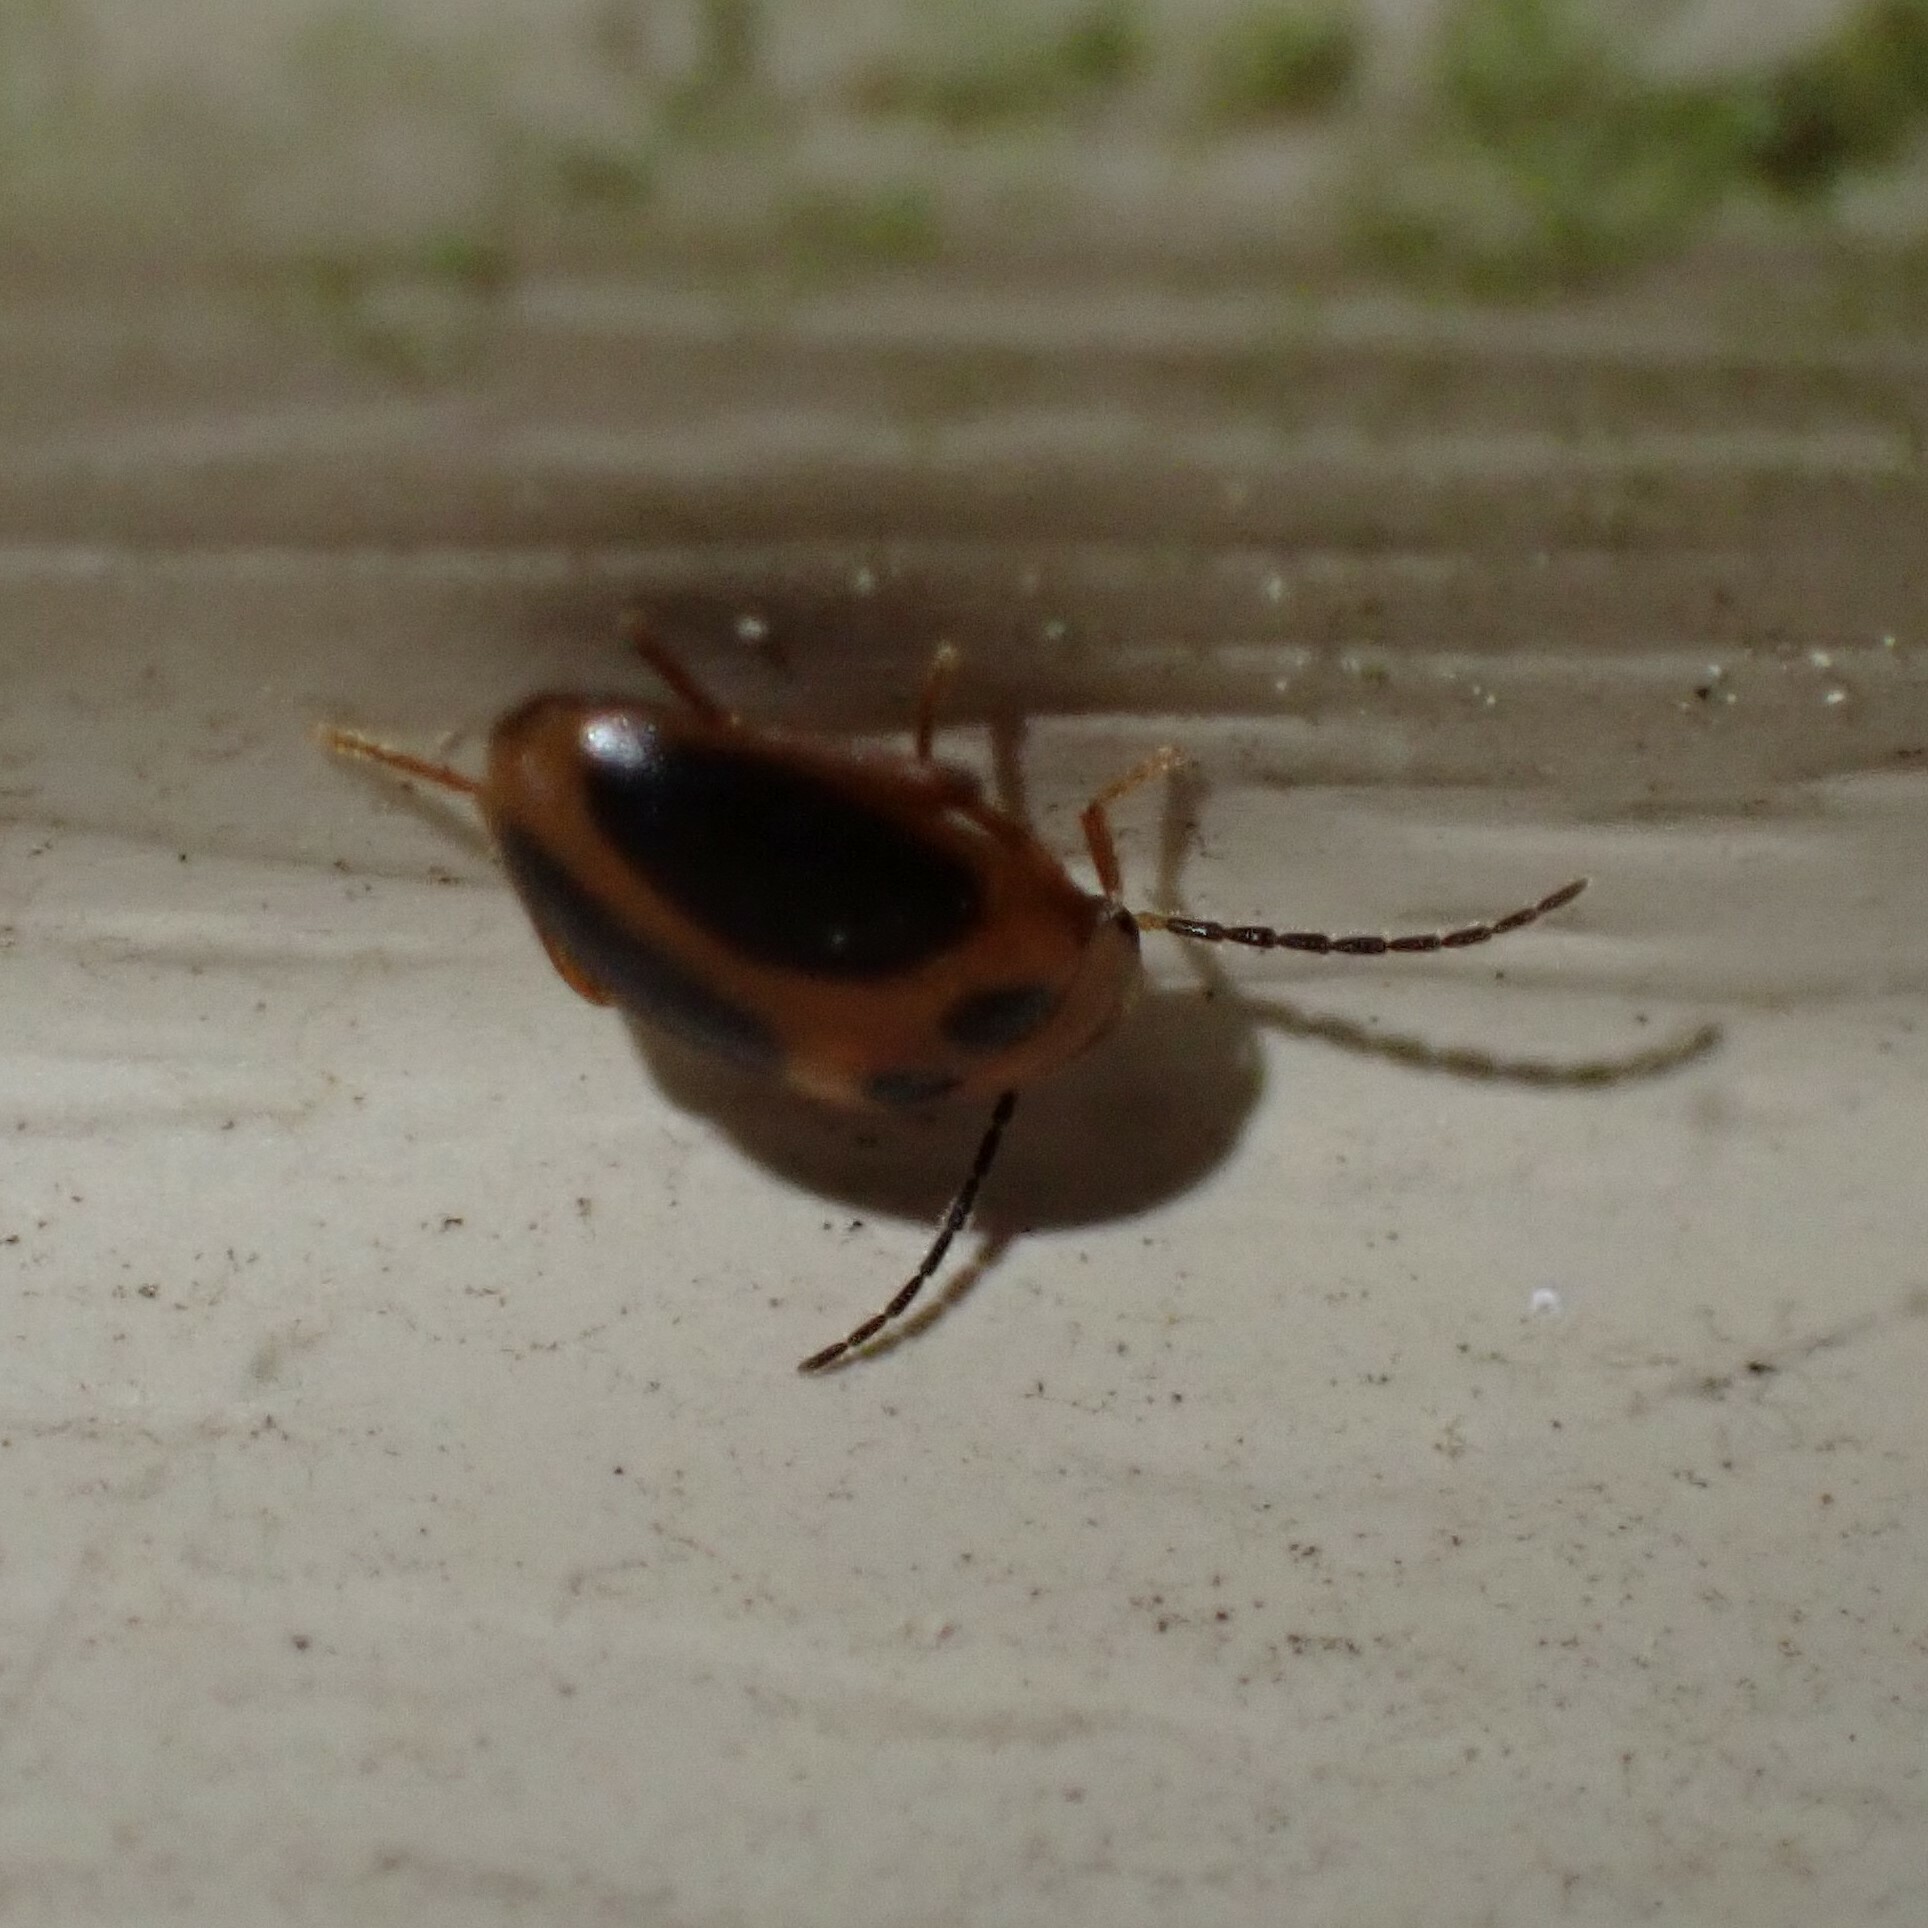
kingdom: Animalia
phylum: Arthropoda
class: Insecta
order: Coleoptera
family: Scirtidae
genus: Sacodes
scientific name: Sacodes pulchella
